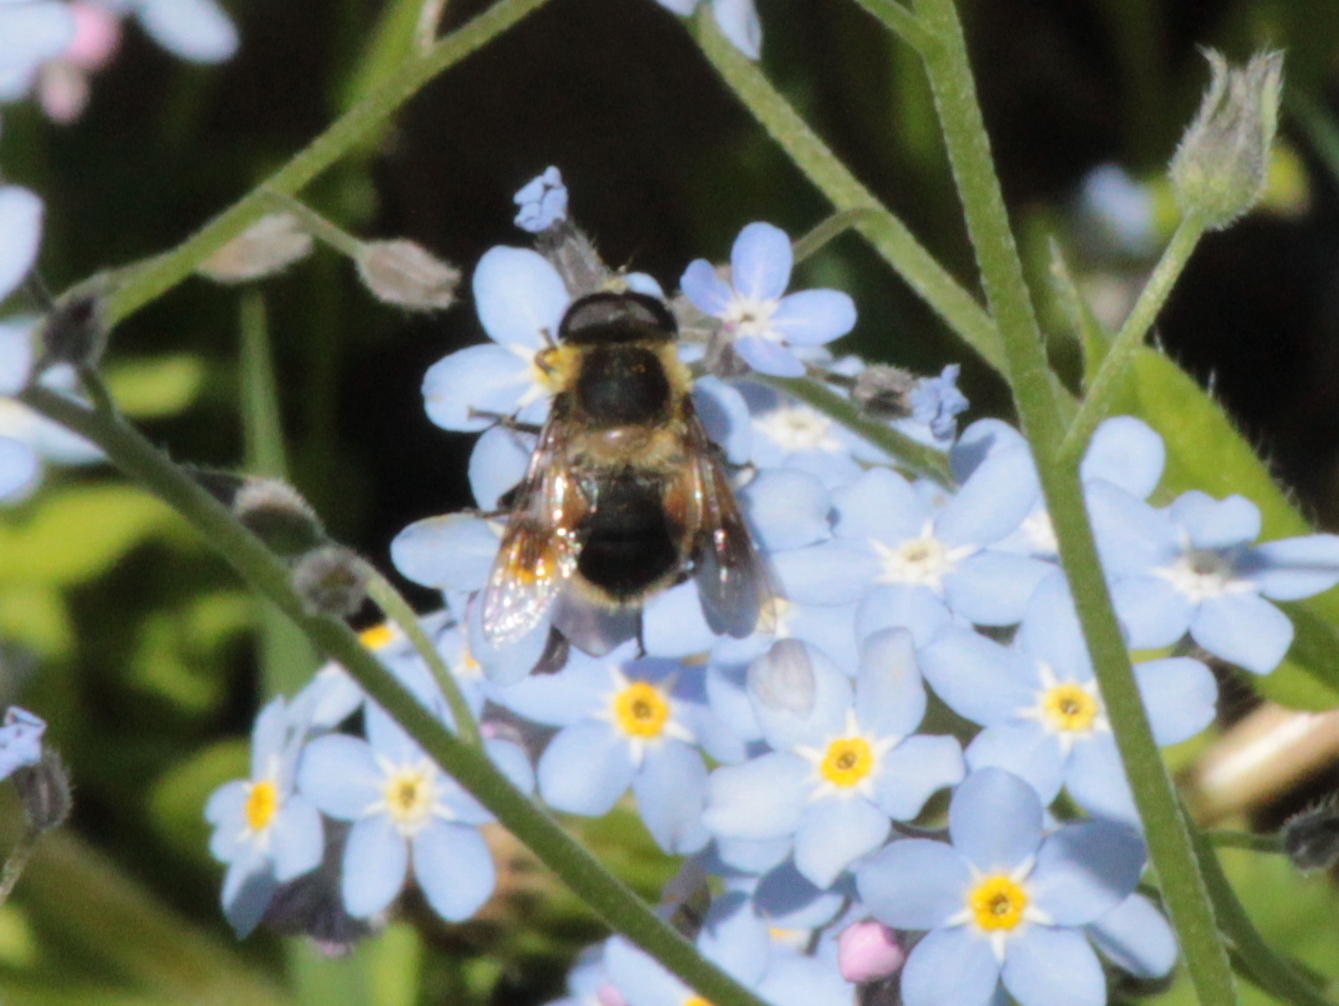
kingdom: Animalia
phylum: Arthropoda
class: Insecta
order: Diptera
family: Syrphidae
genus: Eristalis
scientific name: Eristalis anthophorina
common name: Orange-spotted drone fly
